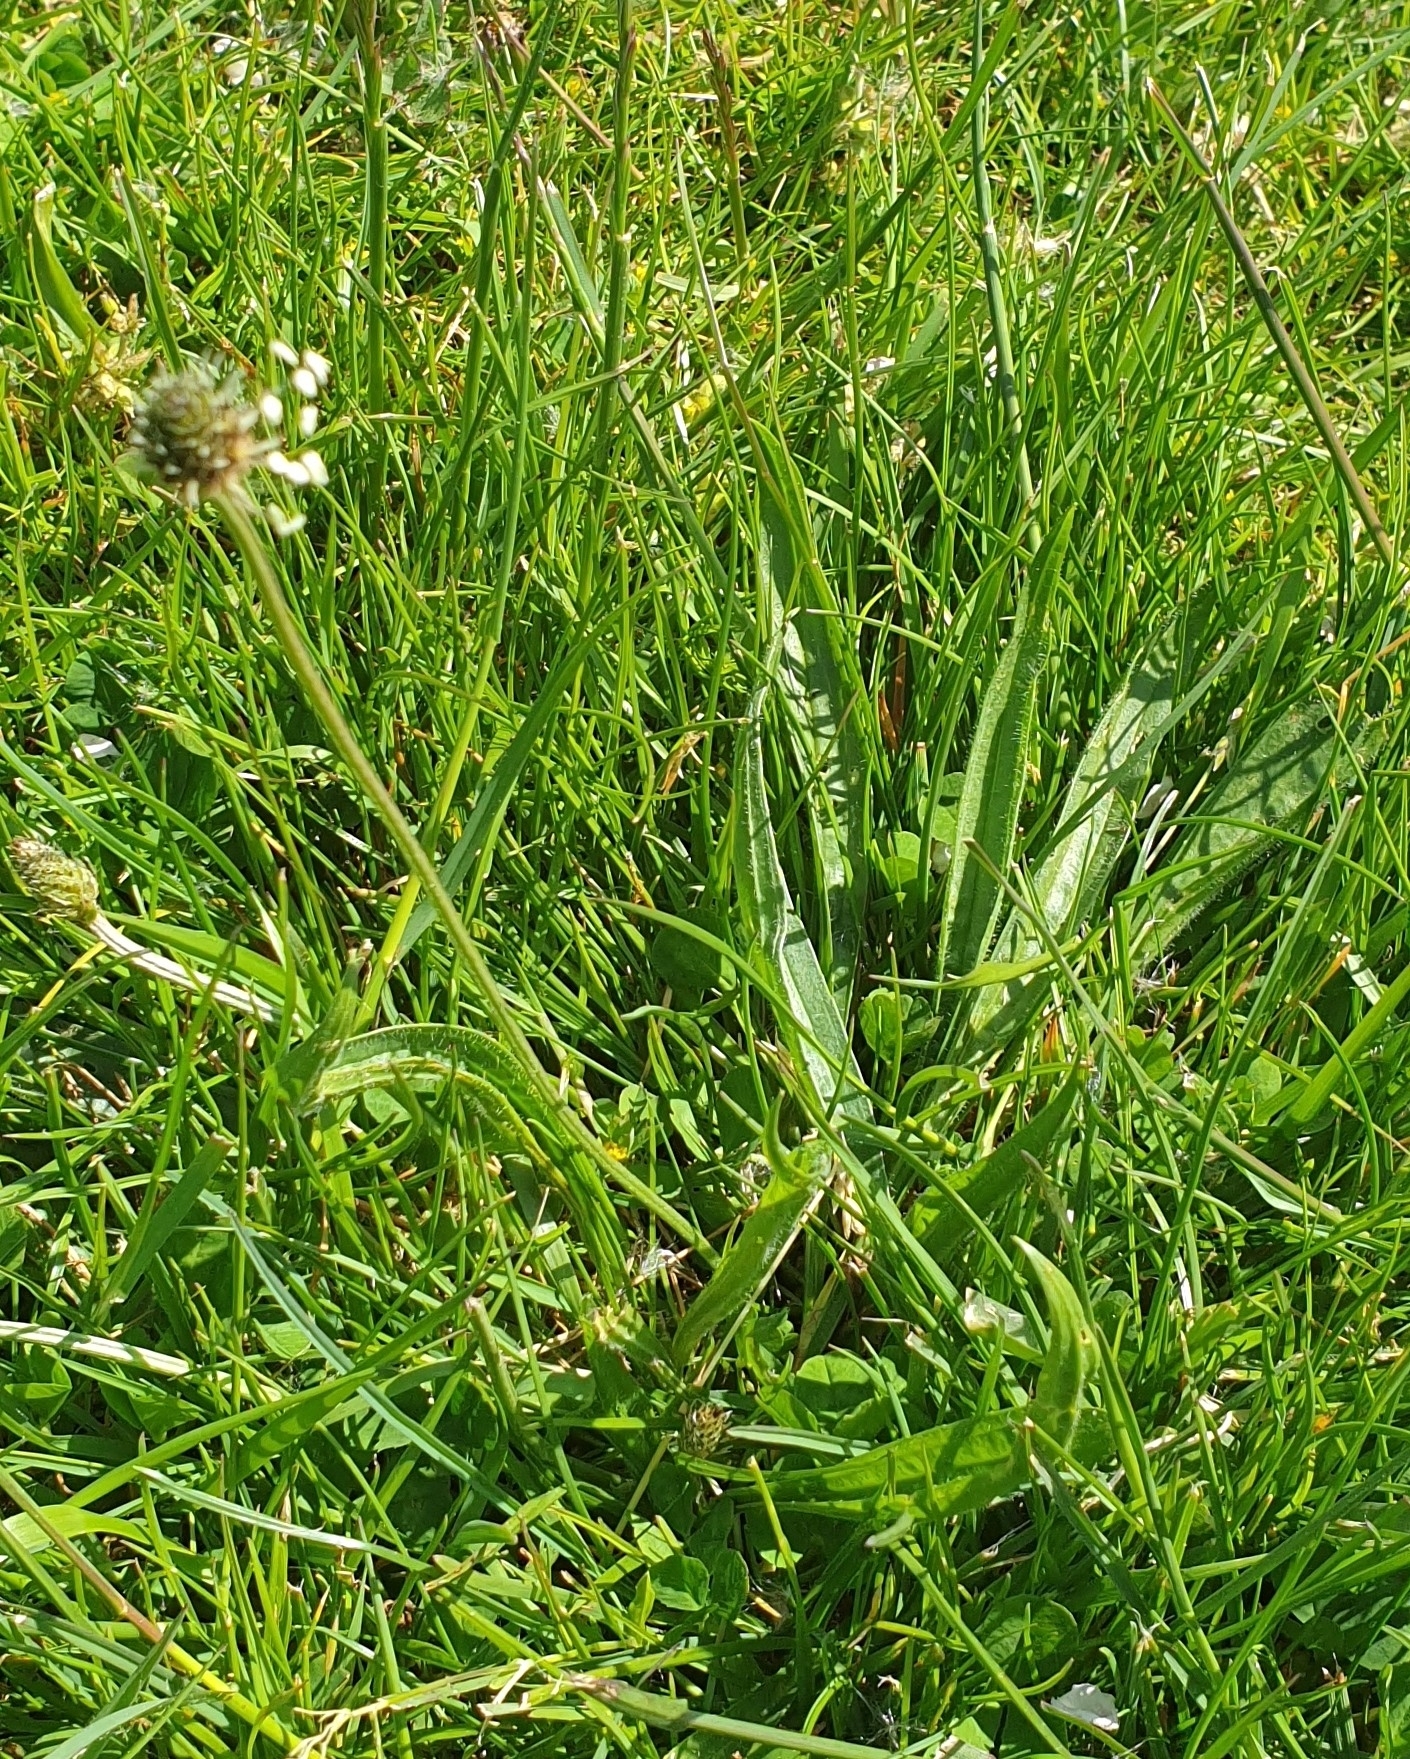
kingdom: Plantae
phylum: Tracheophyta
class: Magnoliopsida
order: Lamiales
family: Plantaginaceae
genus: Plantago
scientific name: Plantago lanceolata
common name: Ribwort plantain
